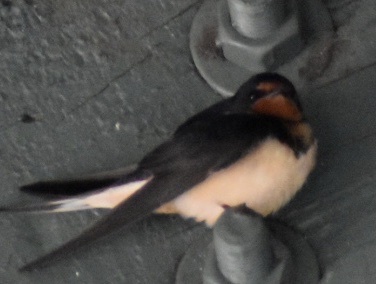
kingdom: Animalia
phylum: Chordata
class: Aves
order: Passeriformes
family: Hirundinidae
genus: Hirundo
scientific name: Hirundo rustica
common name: Barn swallow
